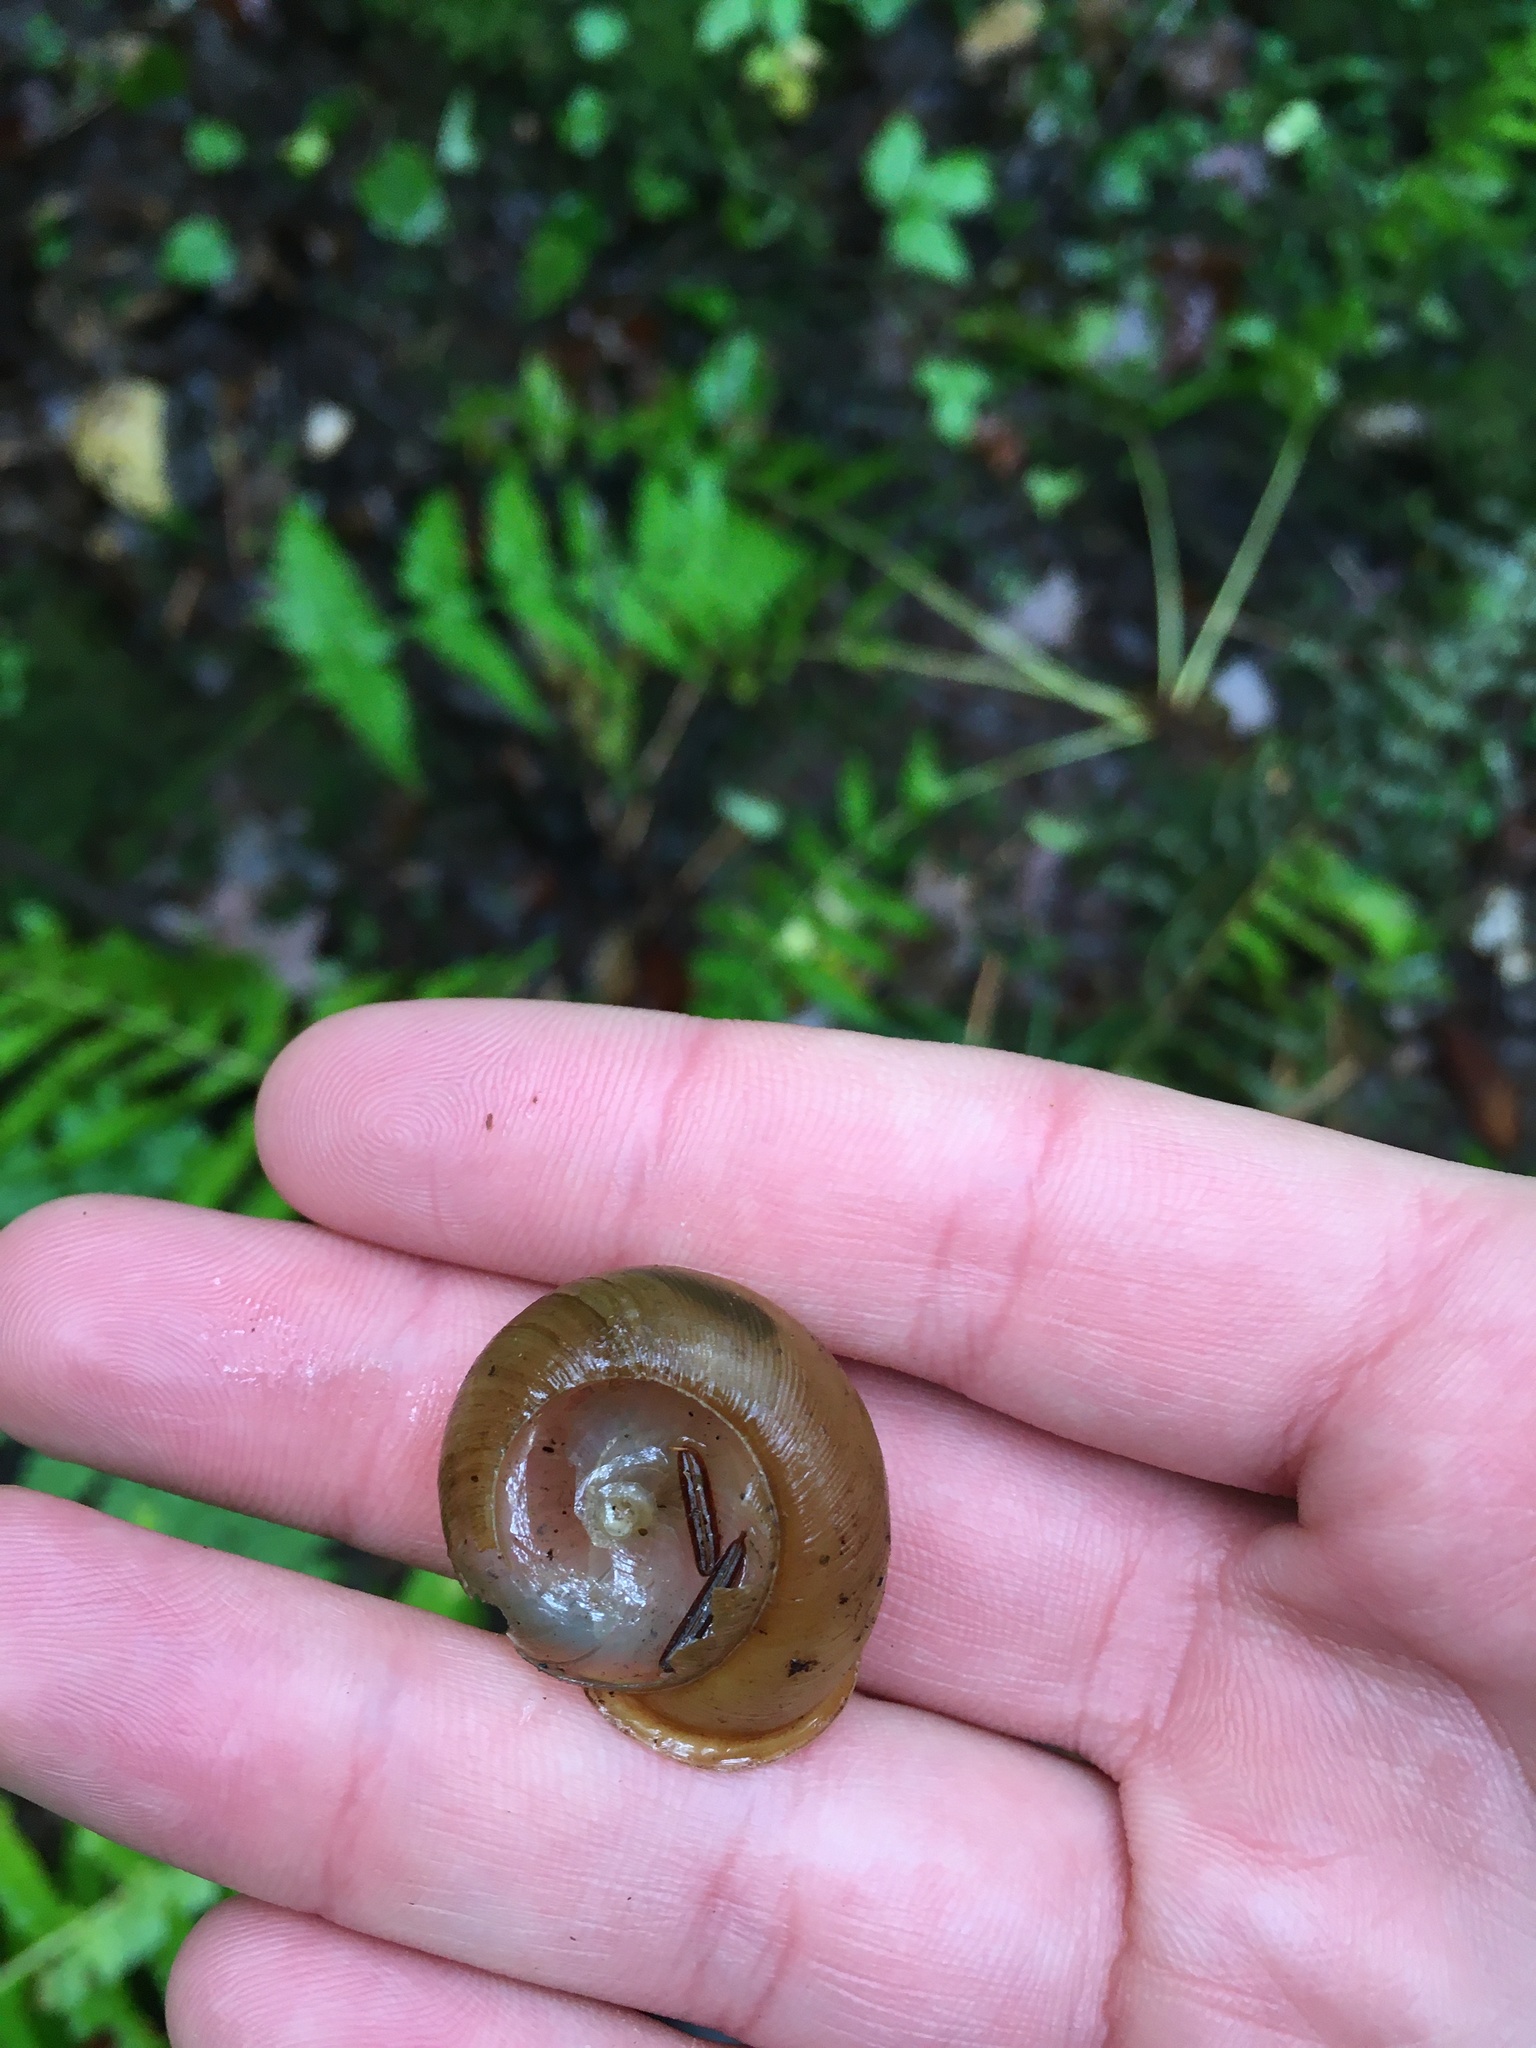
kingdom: Animalia
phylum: Mollusca
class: Gastropoda
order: Stylommatophora
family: Polygyridae
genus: Neohelix
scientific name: Neohelix albolabris
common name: Eastern whitelip
